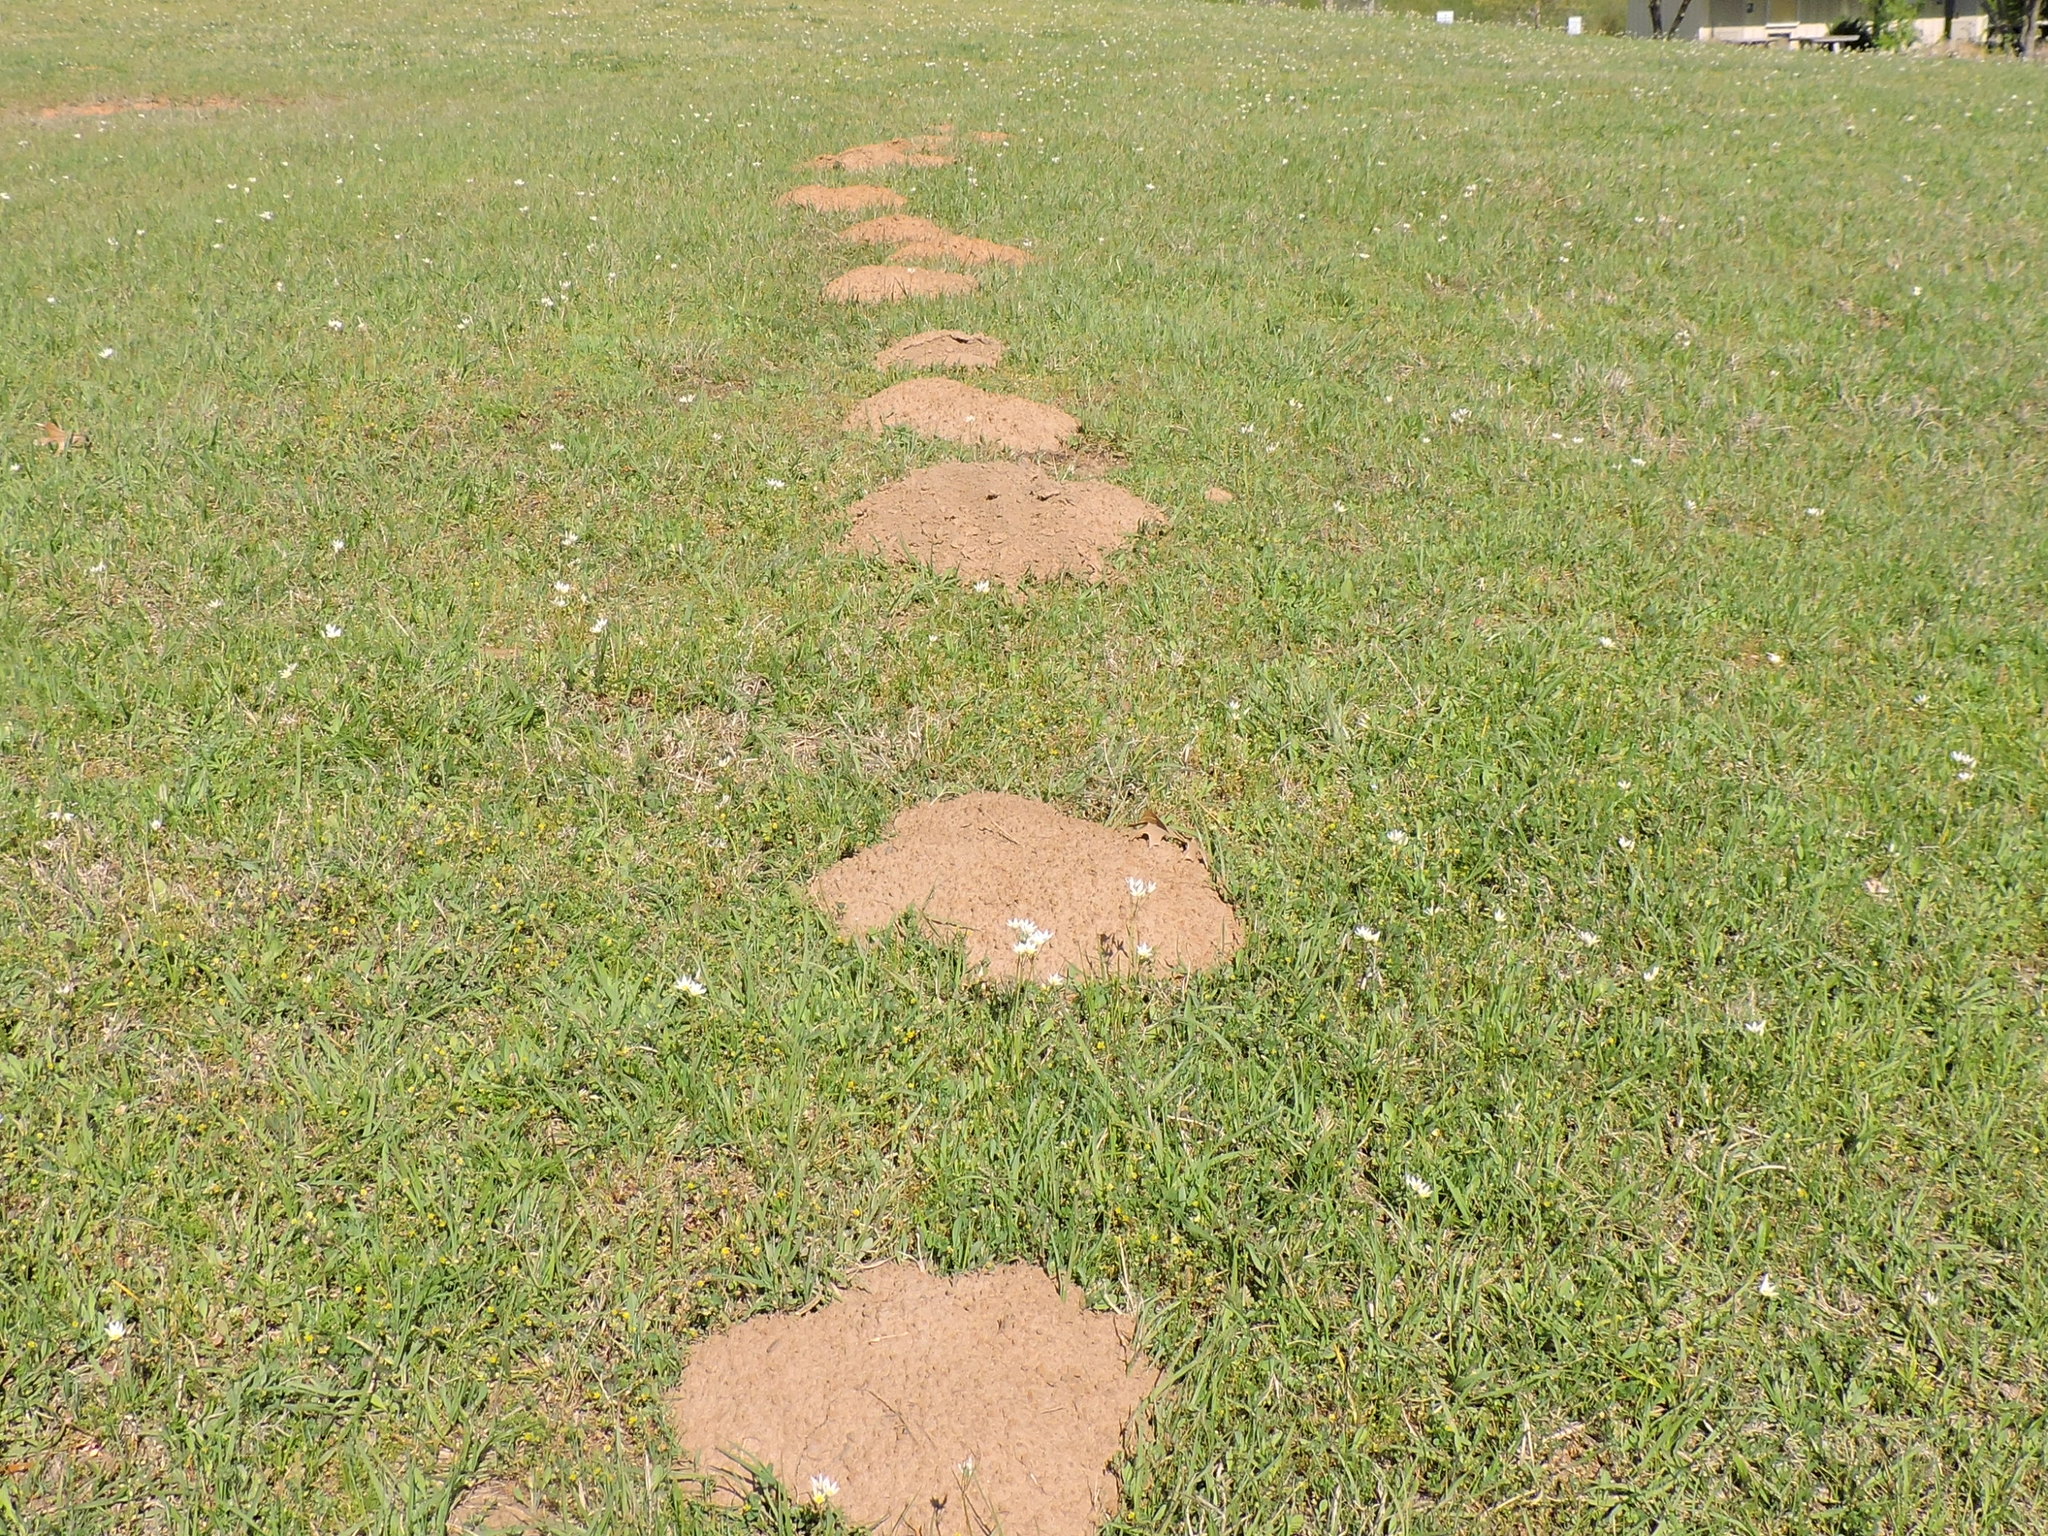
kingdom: Animalia
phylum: Chordata
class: Mammalia
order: Rodentia
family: Geomyidae
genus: Geomys
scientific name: Geomys breviceps
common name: Baird's pocket gopher
